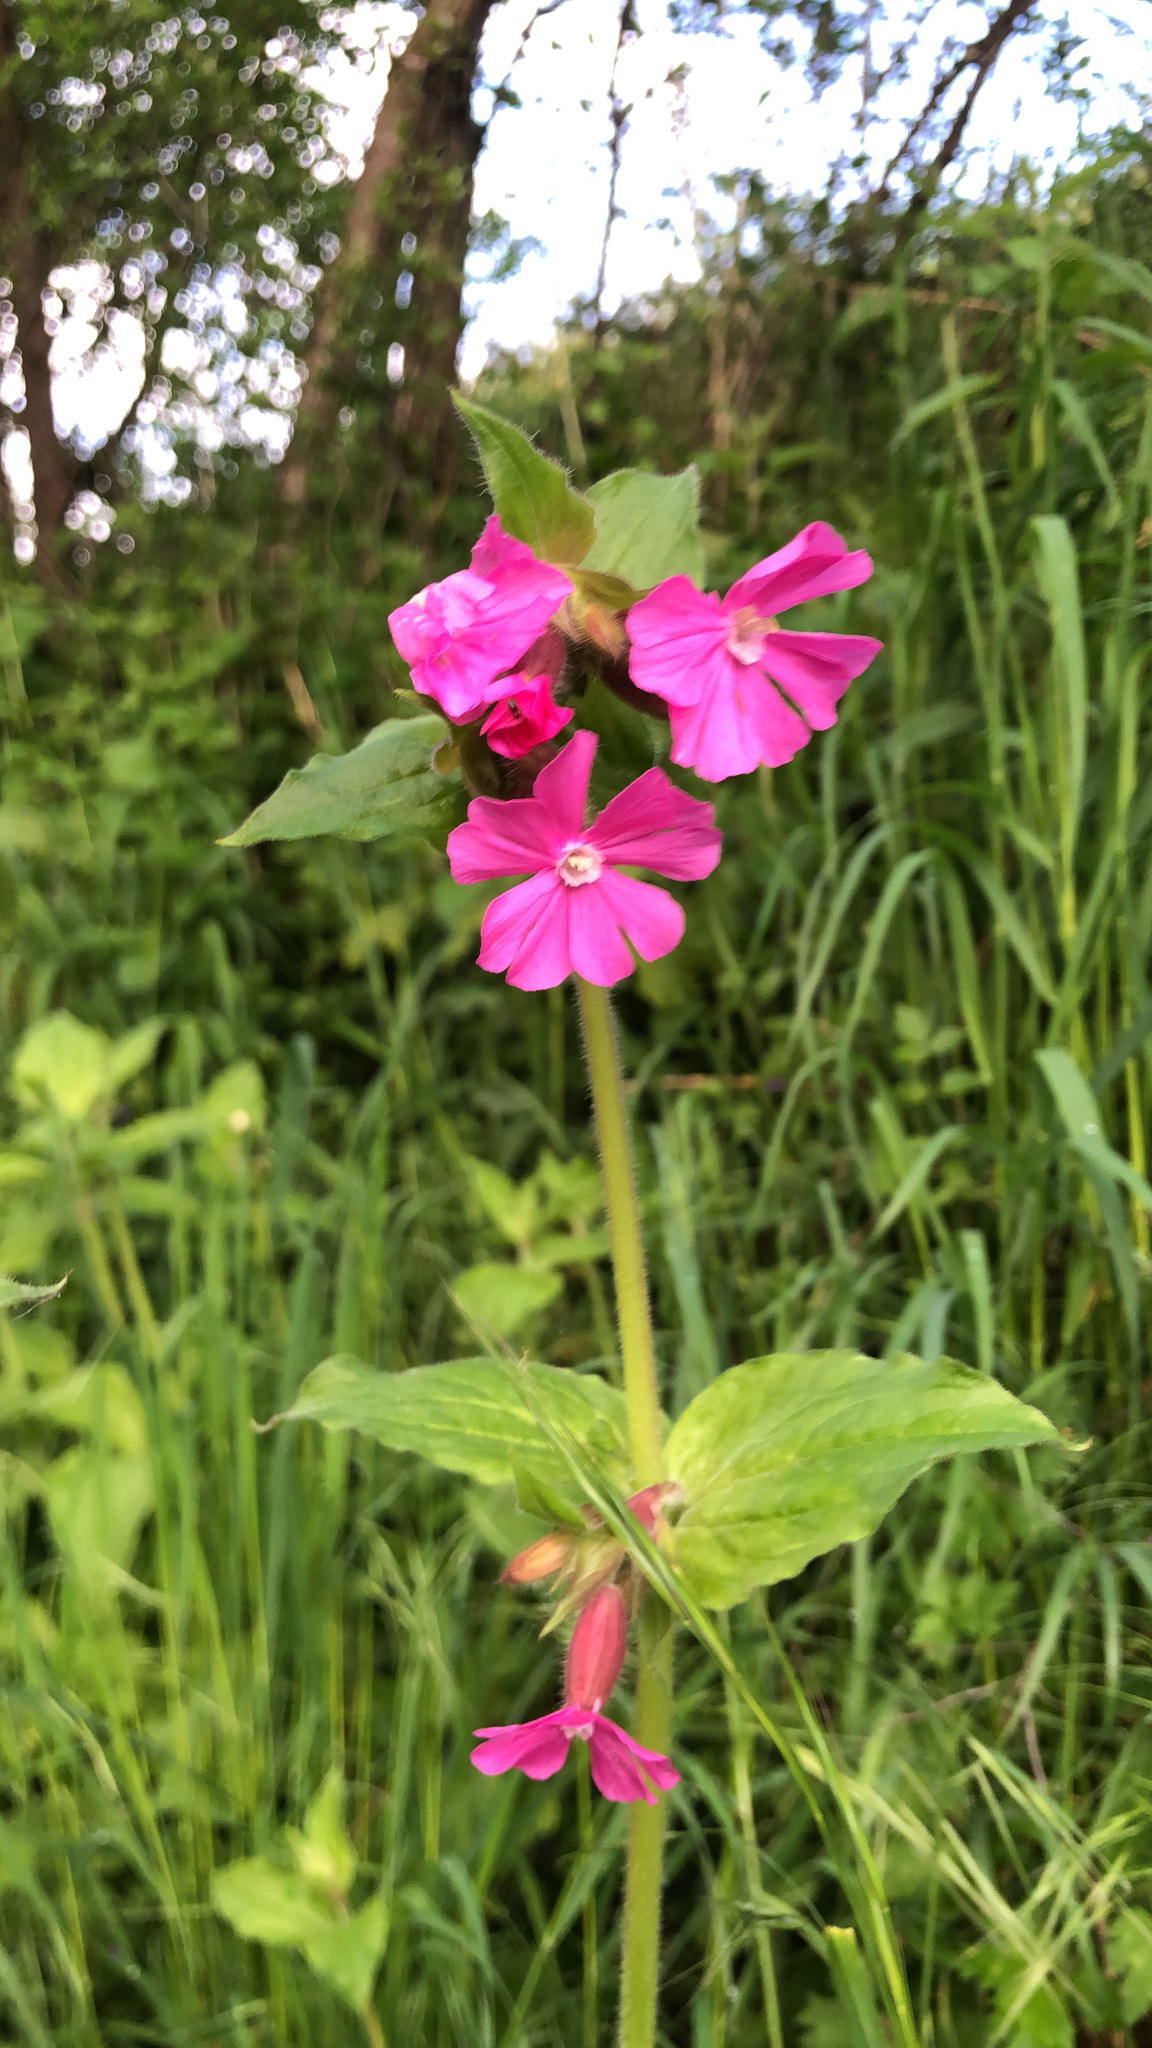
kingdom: Plantae
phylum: Tracheophyta
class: Magnoliopsida
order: Caryophyllales
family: Caryophyllaceae
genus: Silene
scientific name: Silene dioica
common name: Red campion
